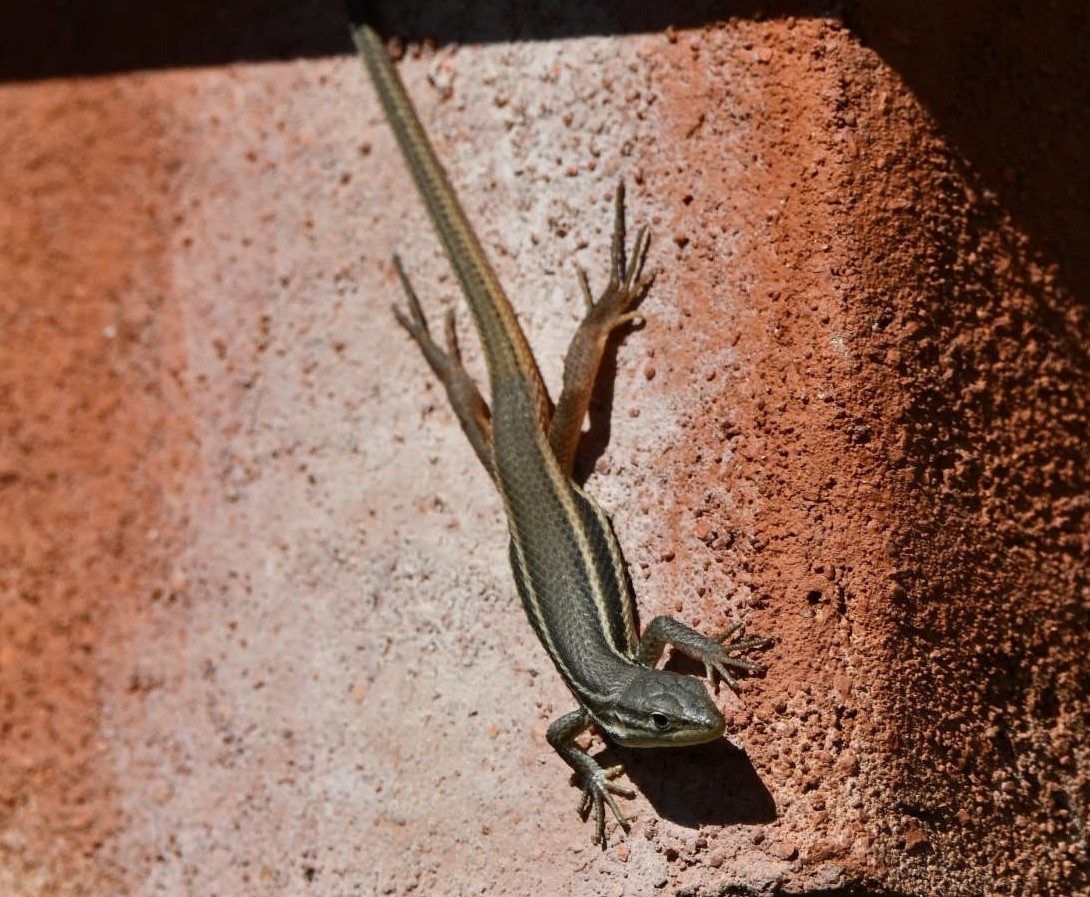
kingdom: Animalia
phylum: Chordata
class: Squamata
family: Lacertidae
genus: Psammodromus
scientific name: Psammodromus algirus
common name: Algerian psammodromus
